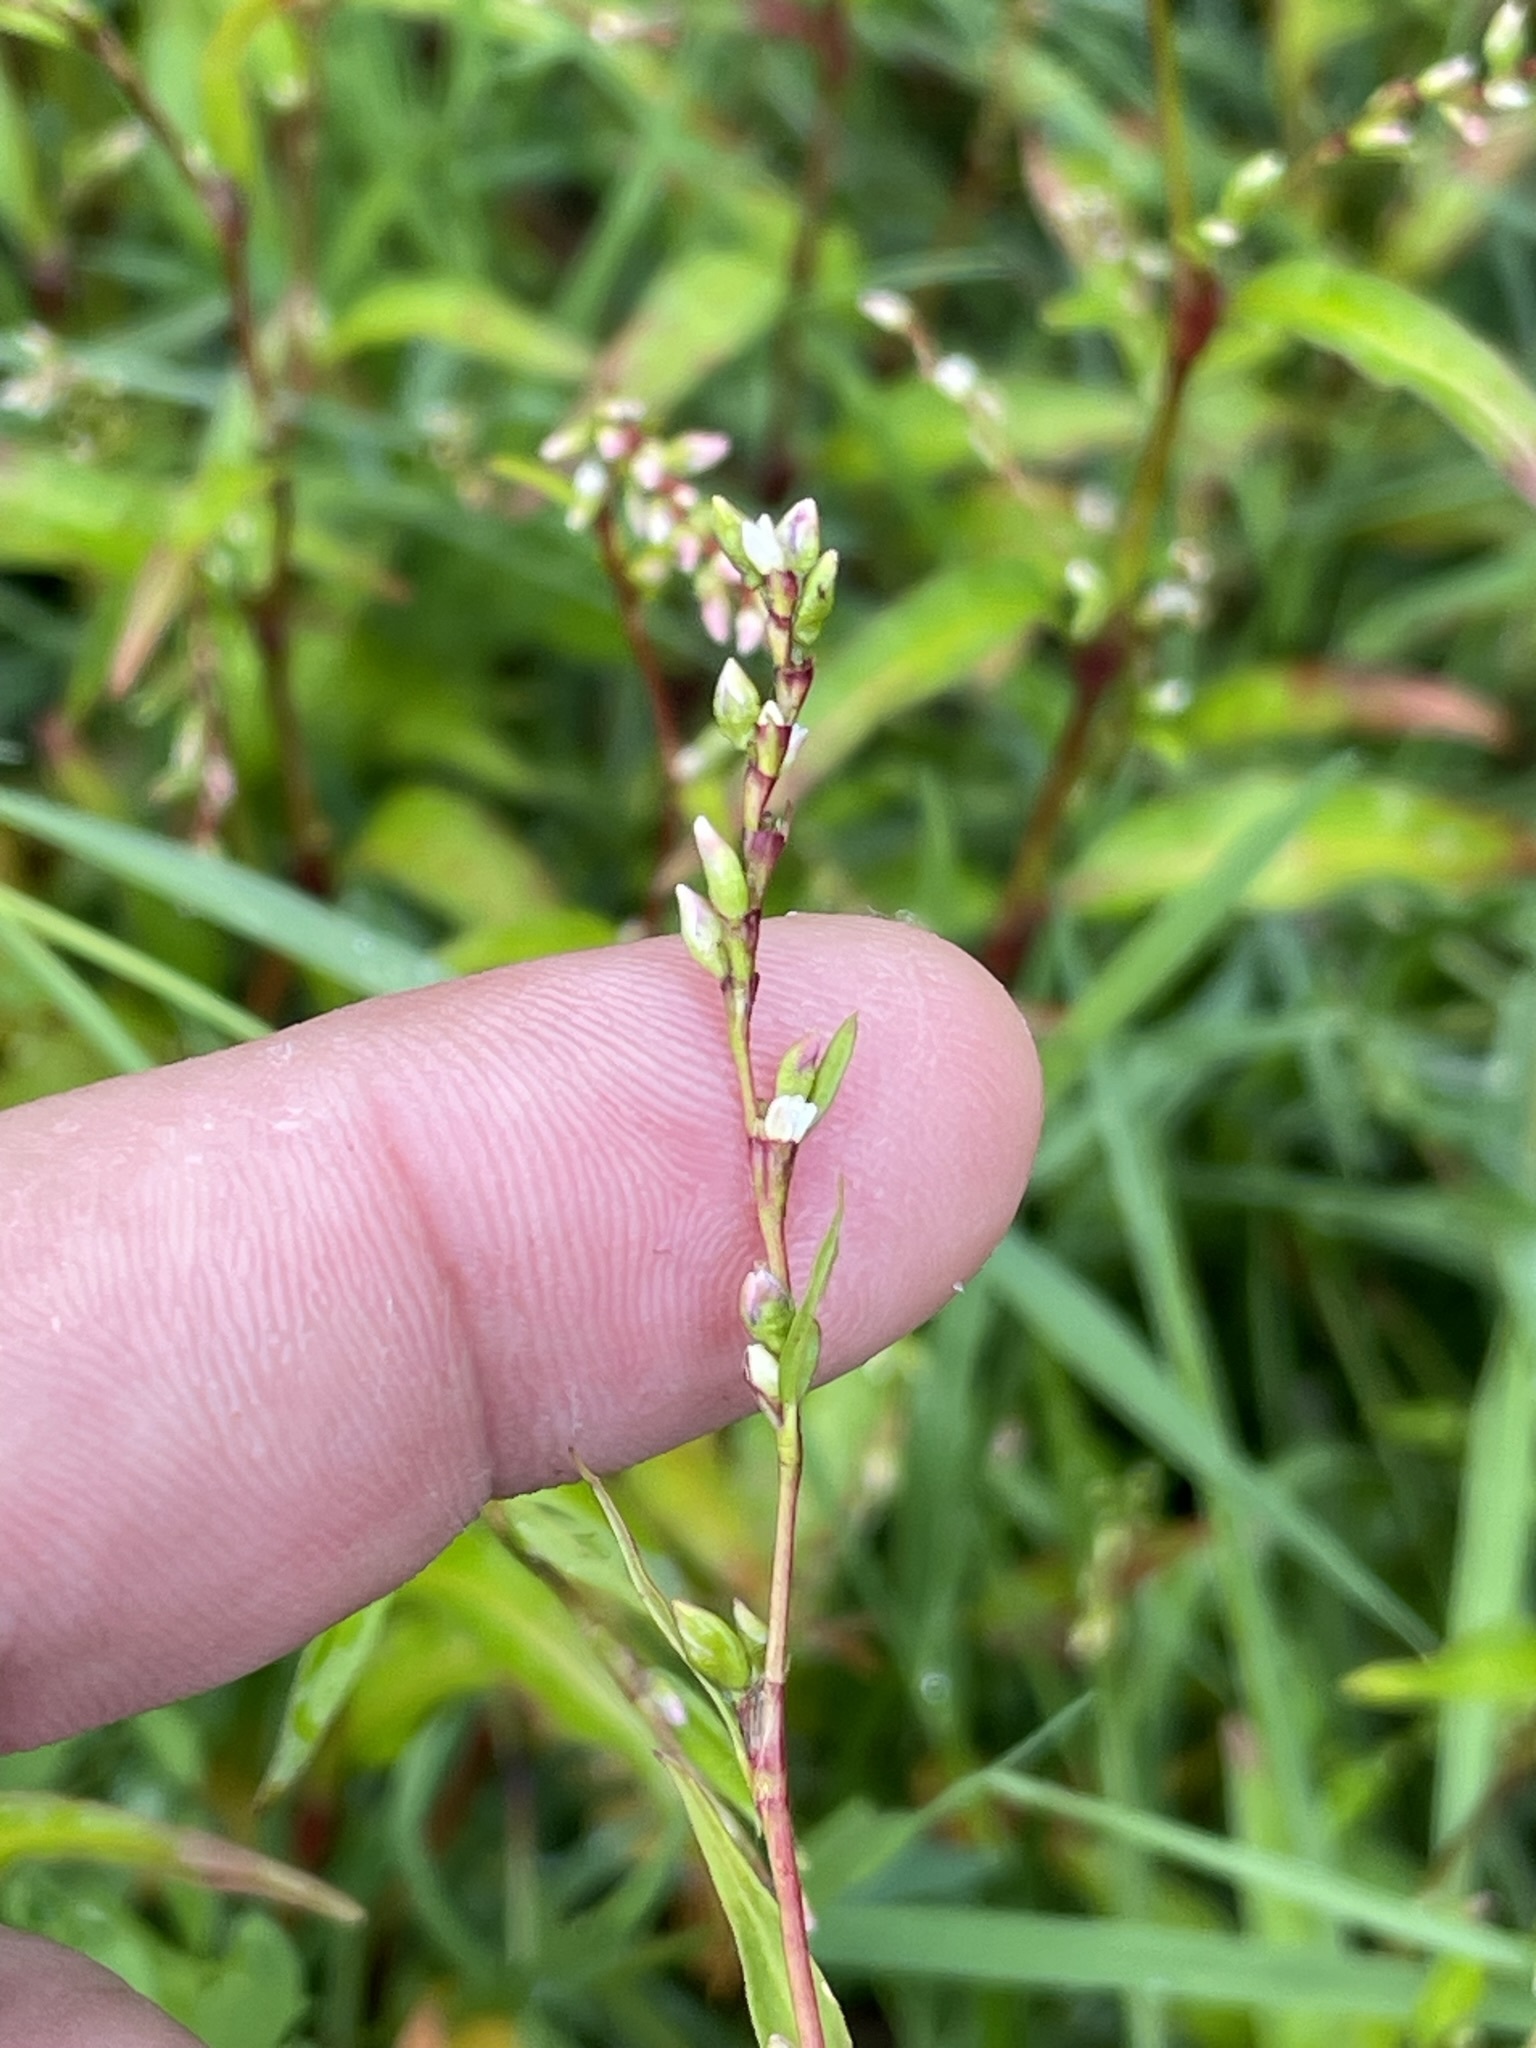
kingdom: Plantae
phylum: Tracheophyta
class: Magnoliopsida
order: Caryophyllales
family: Polygonaceae
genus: Persicaria
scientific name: Persicaria hydropiper
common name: Water-pepper
